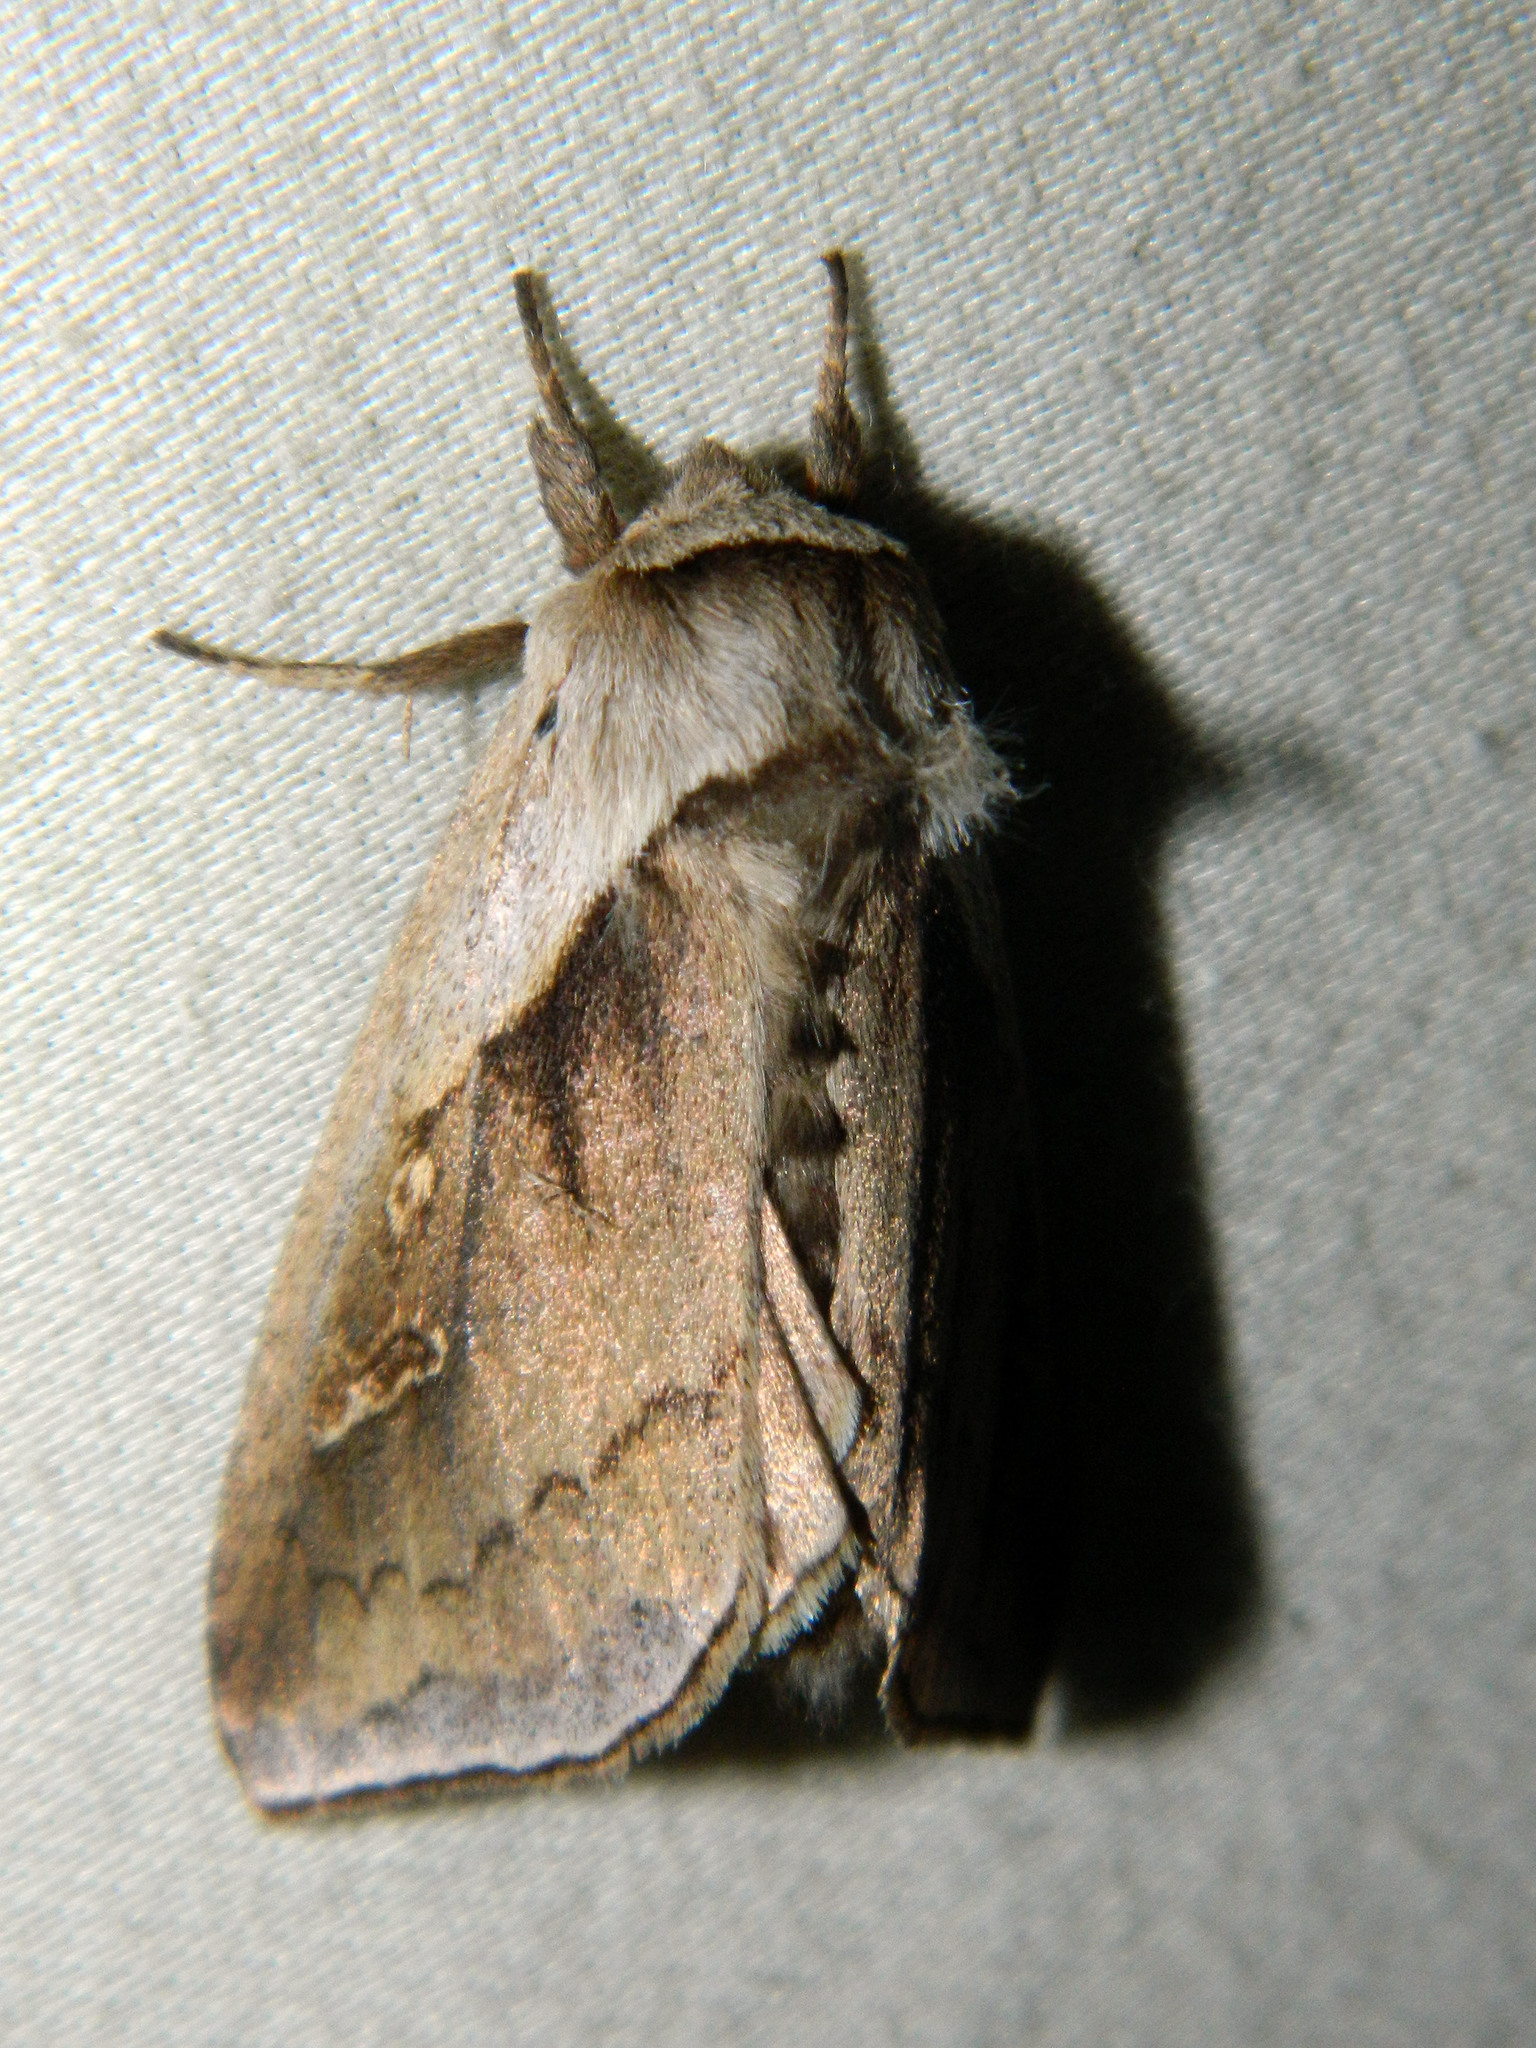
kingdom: Animalia
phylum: Arthropoda
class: Insecta
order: Lepidoptera
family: Noctuidae
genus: Bellura
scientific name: Bellura obliqua
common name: Cattail borer moth
